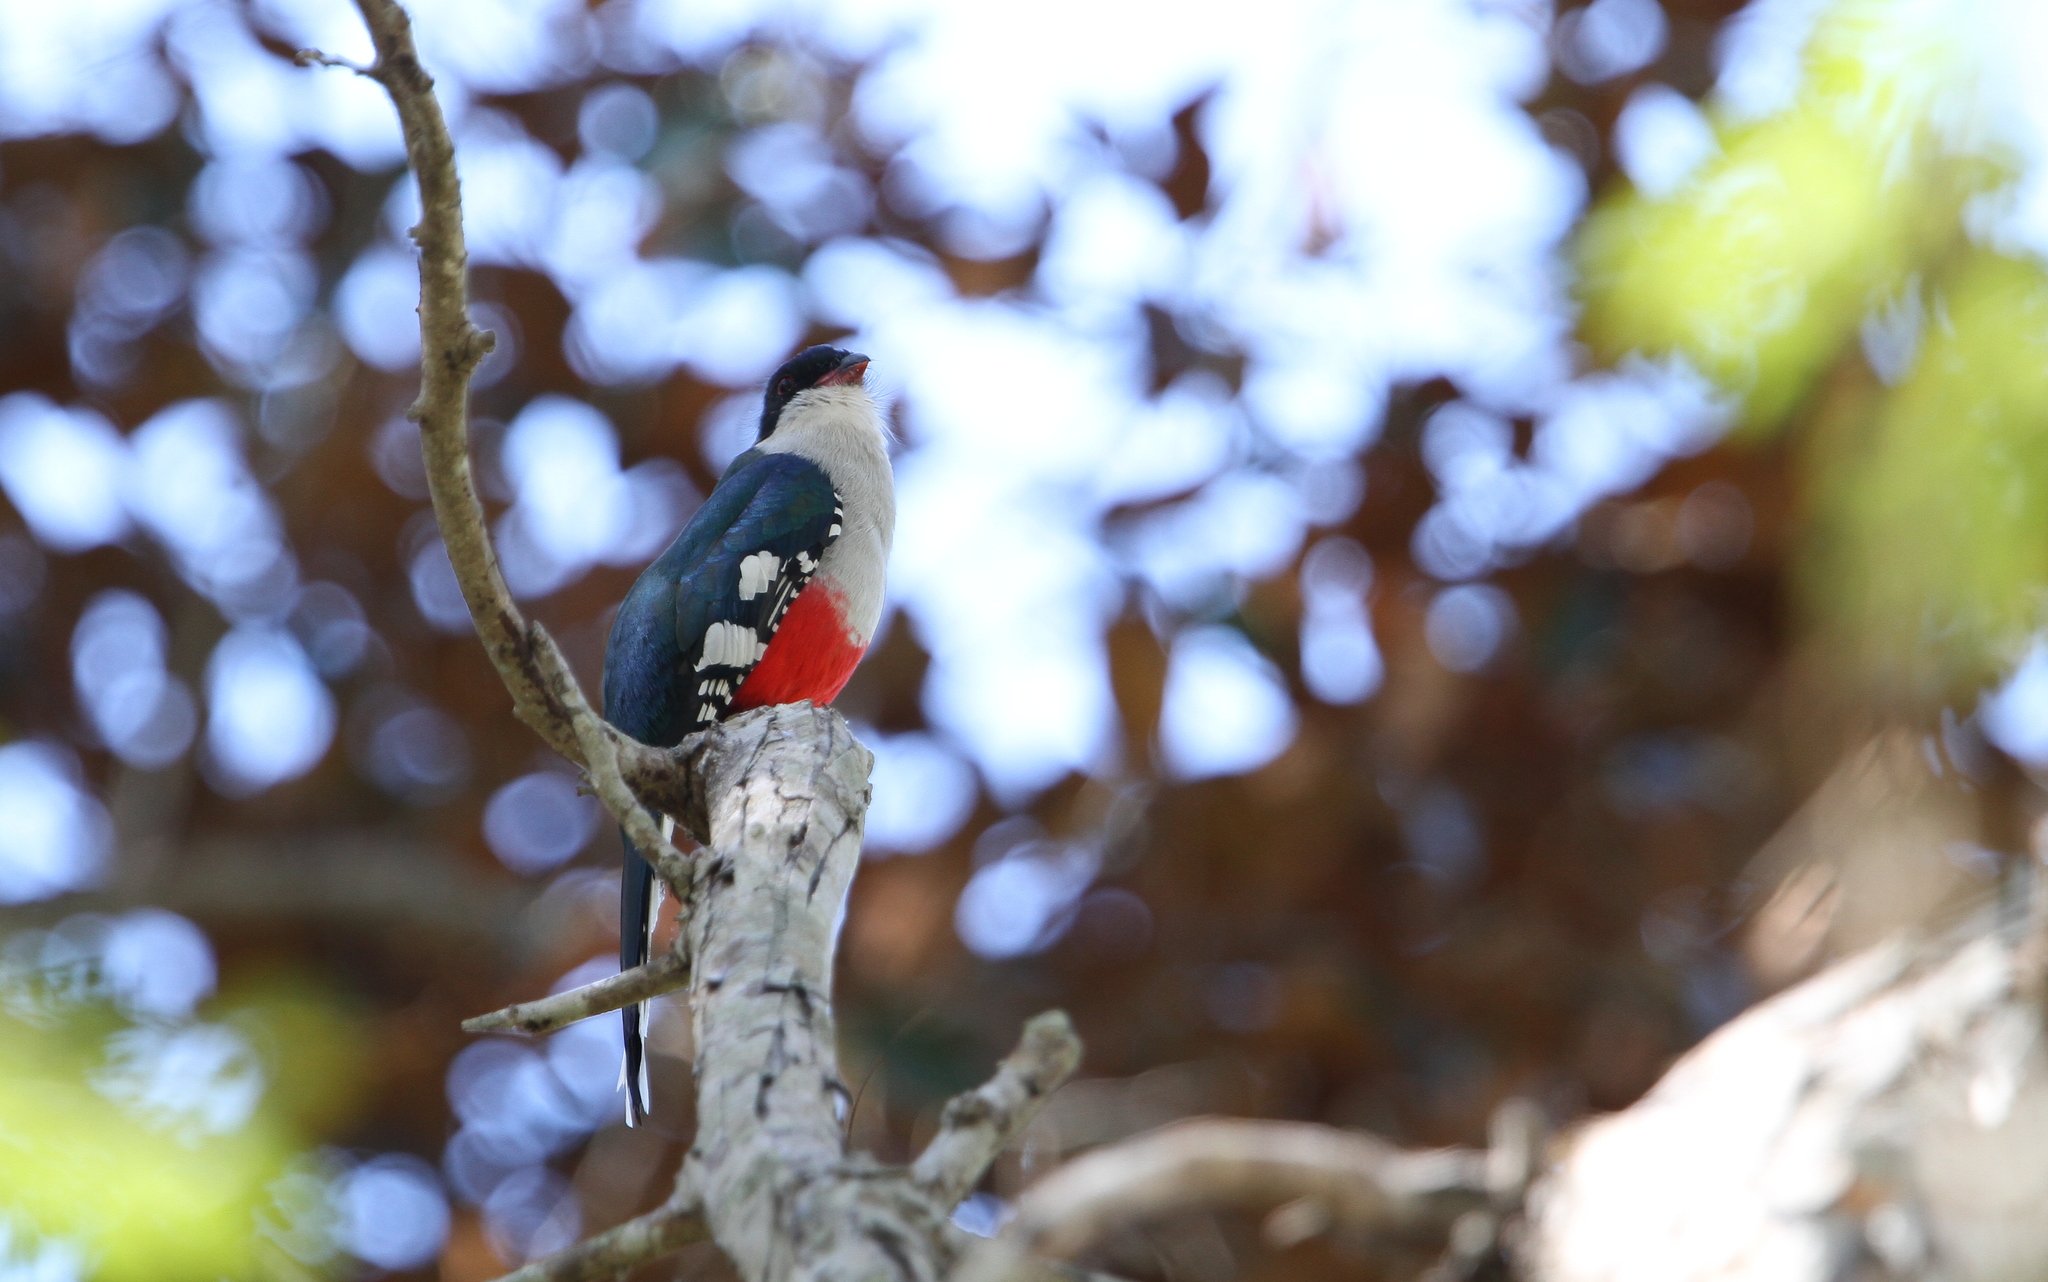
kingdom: Animalia
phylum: Chordata
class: Aves
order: Trogoniformes
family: Trogonidae
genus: Priotelus
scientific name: Priotelus temnurus
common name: Cuban trogon
